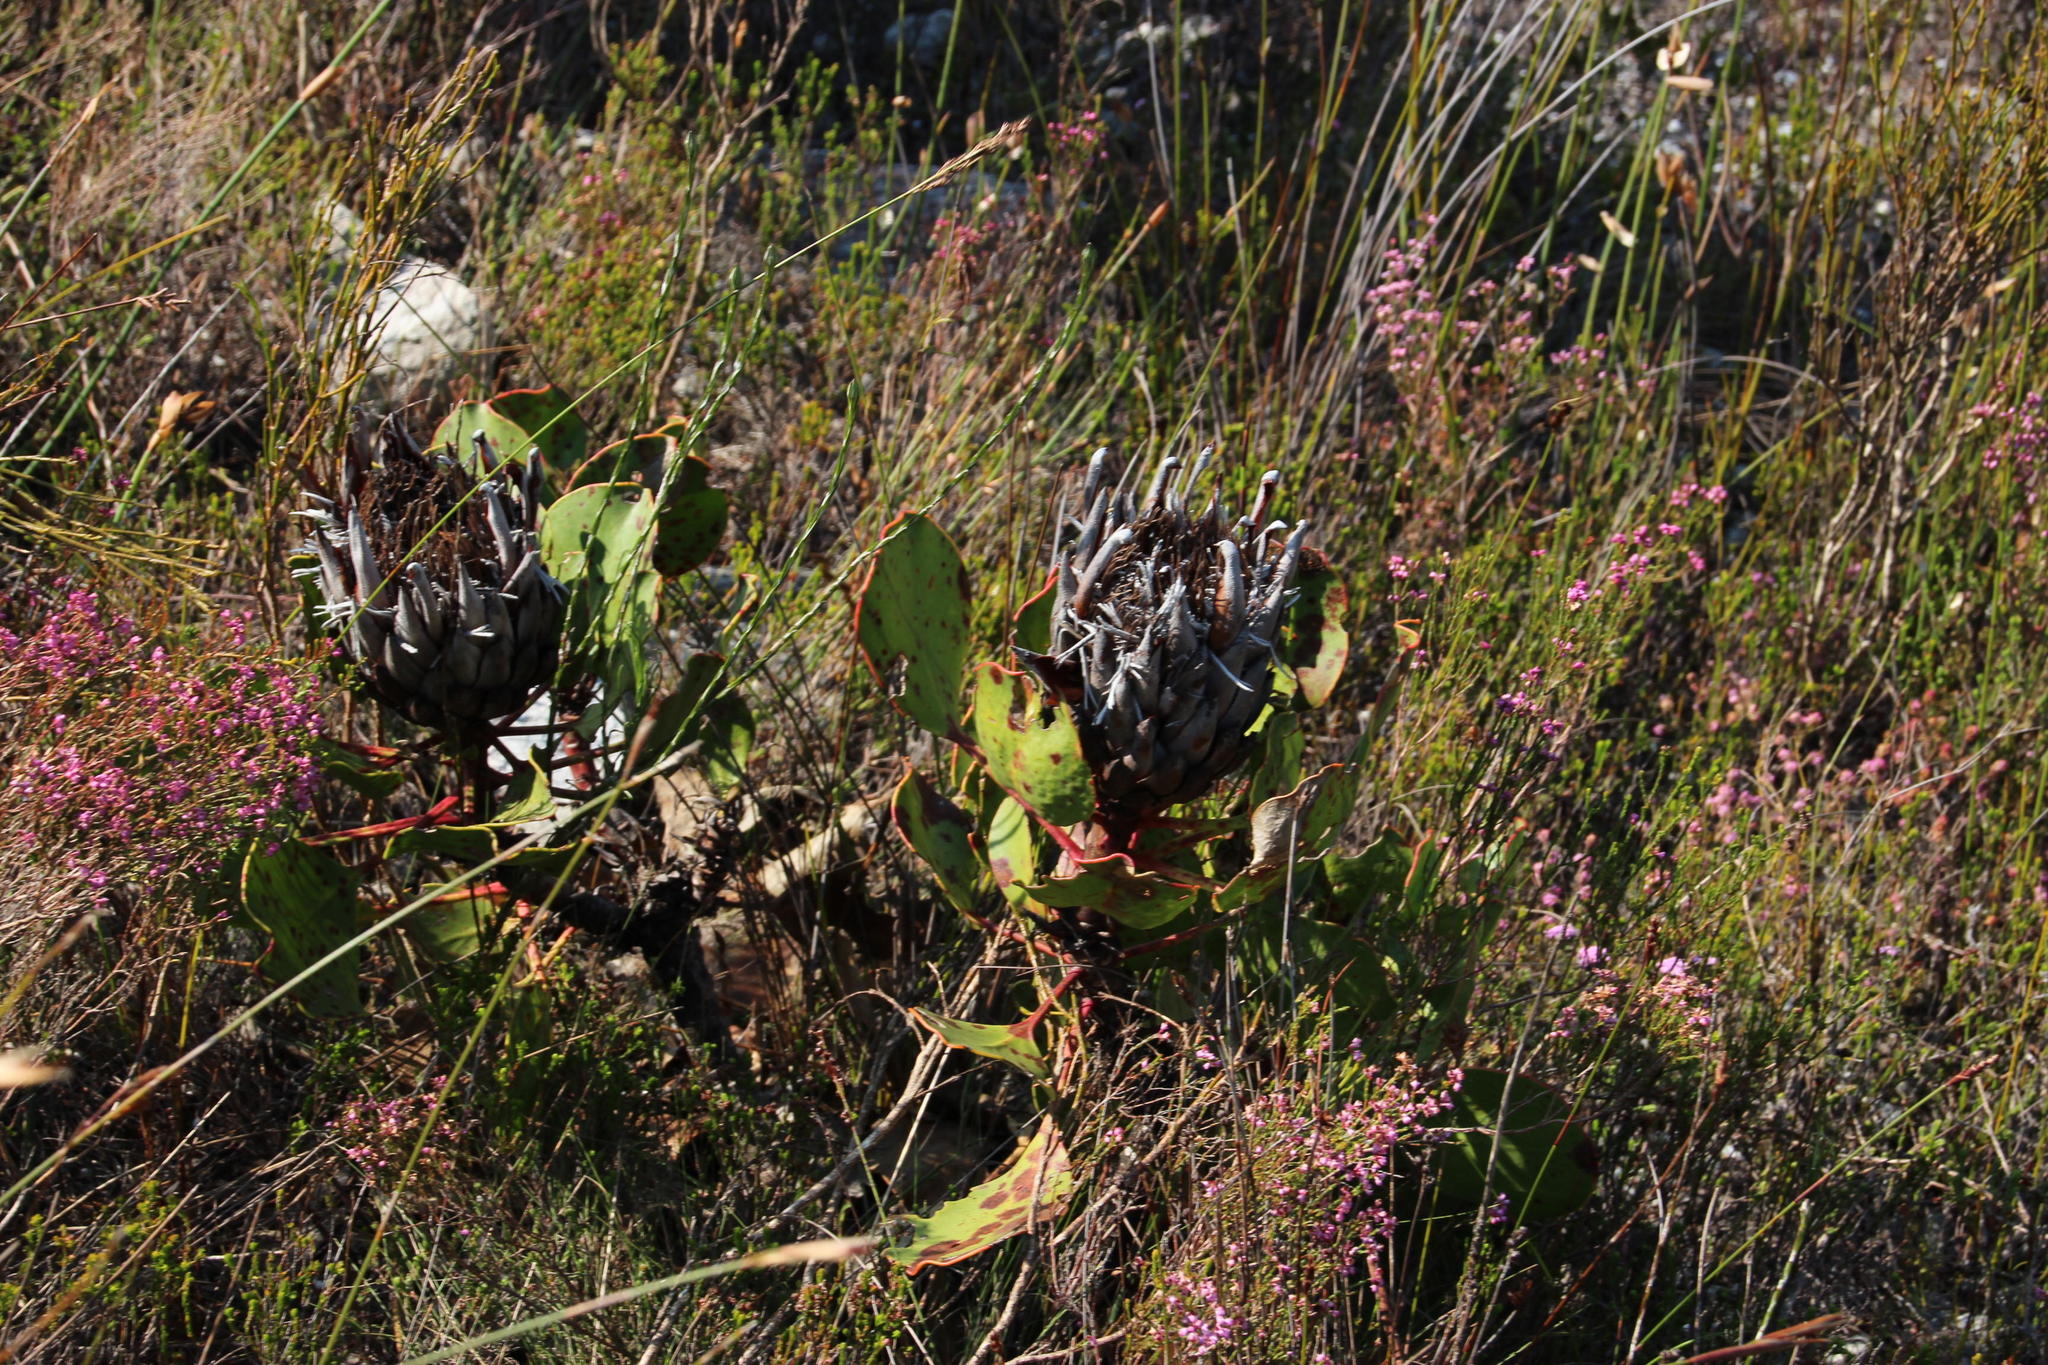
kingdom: Plantae
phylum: Tracheophyta
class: Magnoliopsida
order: Proteales
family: Proteaceae
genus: Protea
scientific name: Protea cynaroides
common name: King protea
